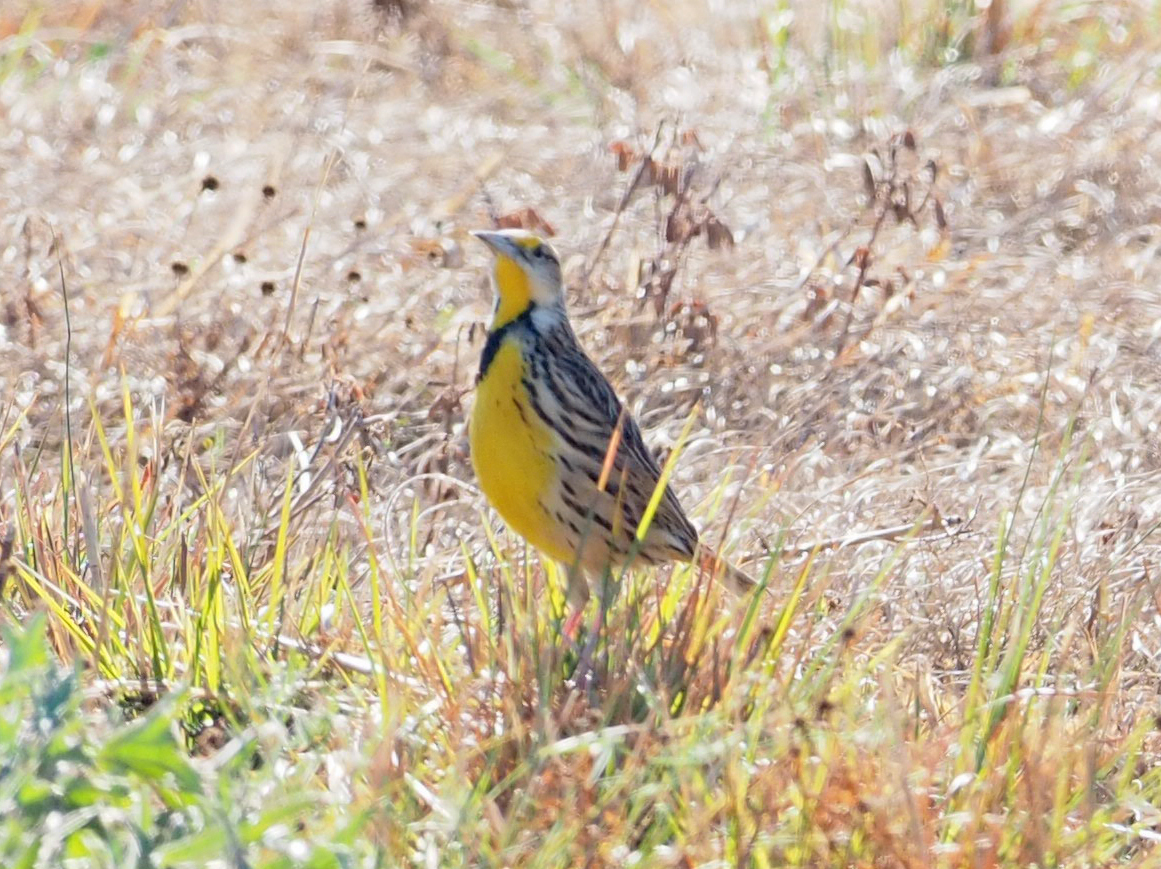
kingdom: Animalia
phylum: Chordata
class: Aves
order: Passeriformes
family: Icteridae
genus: Sturnella
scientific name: Sturnella magna
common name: Eastern meadowlark
